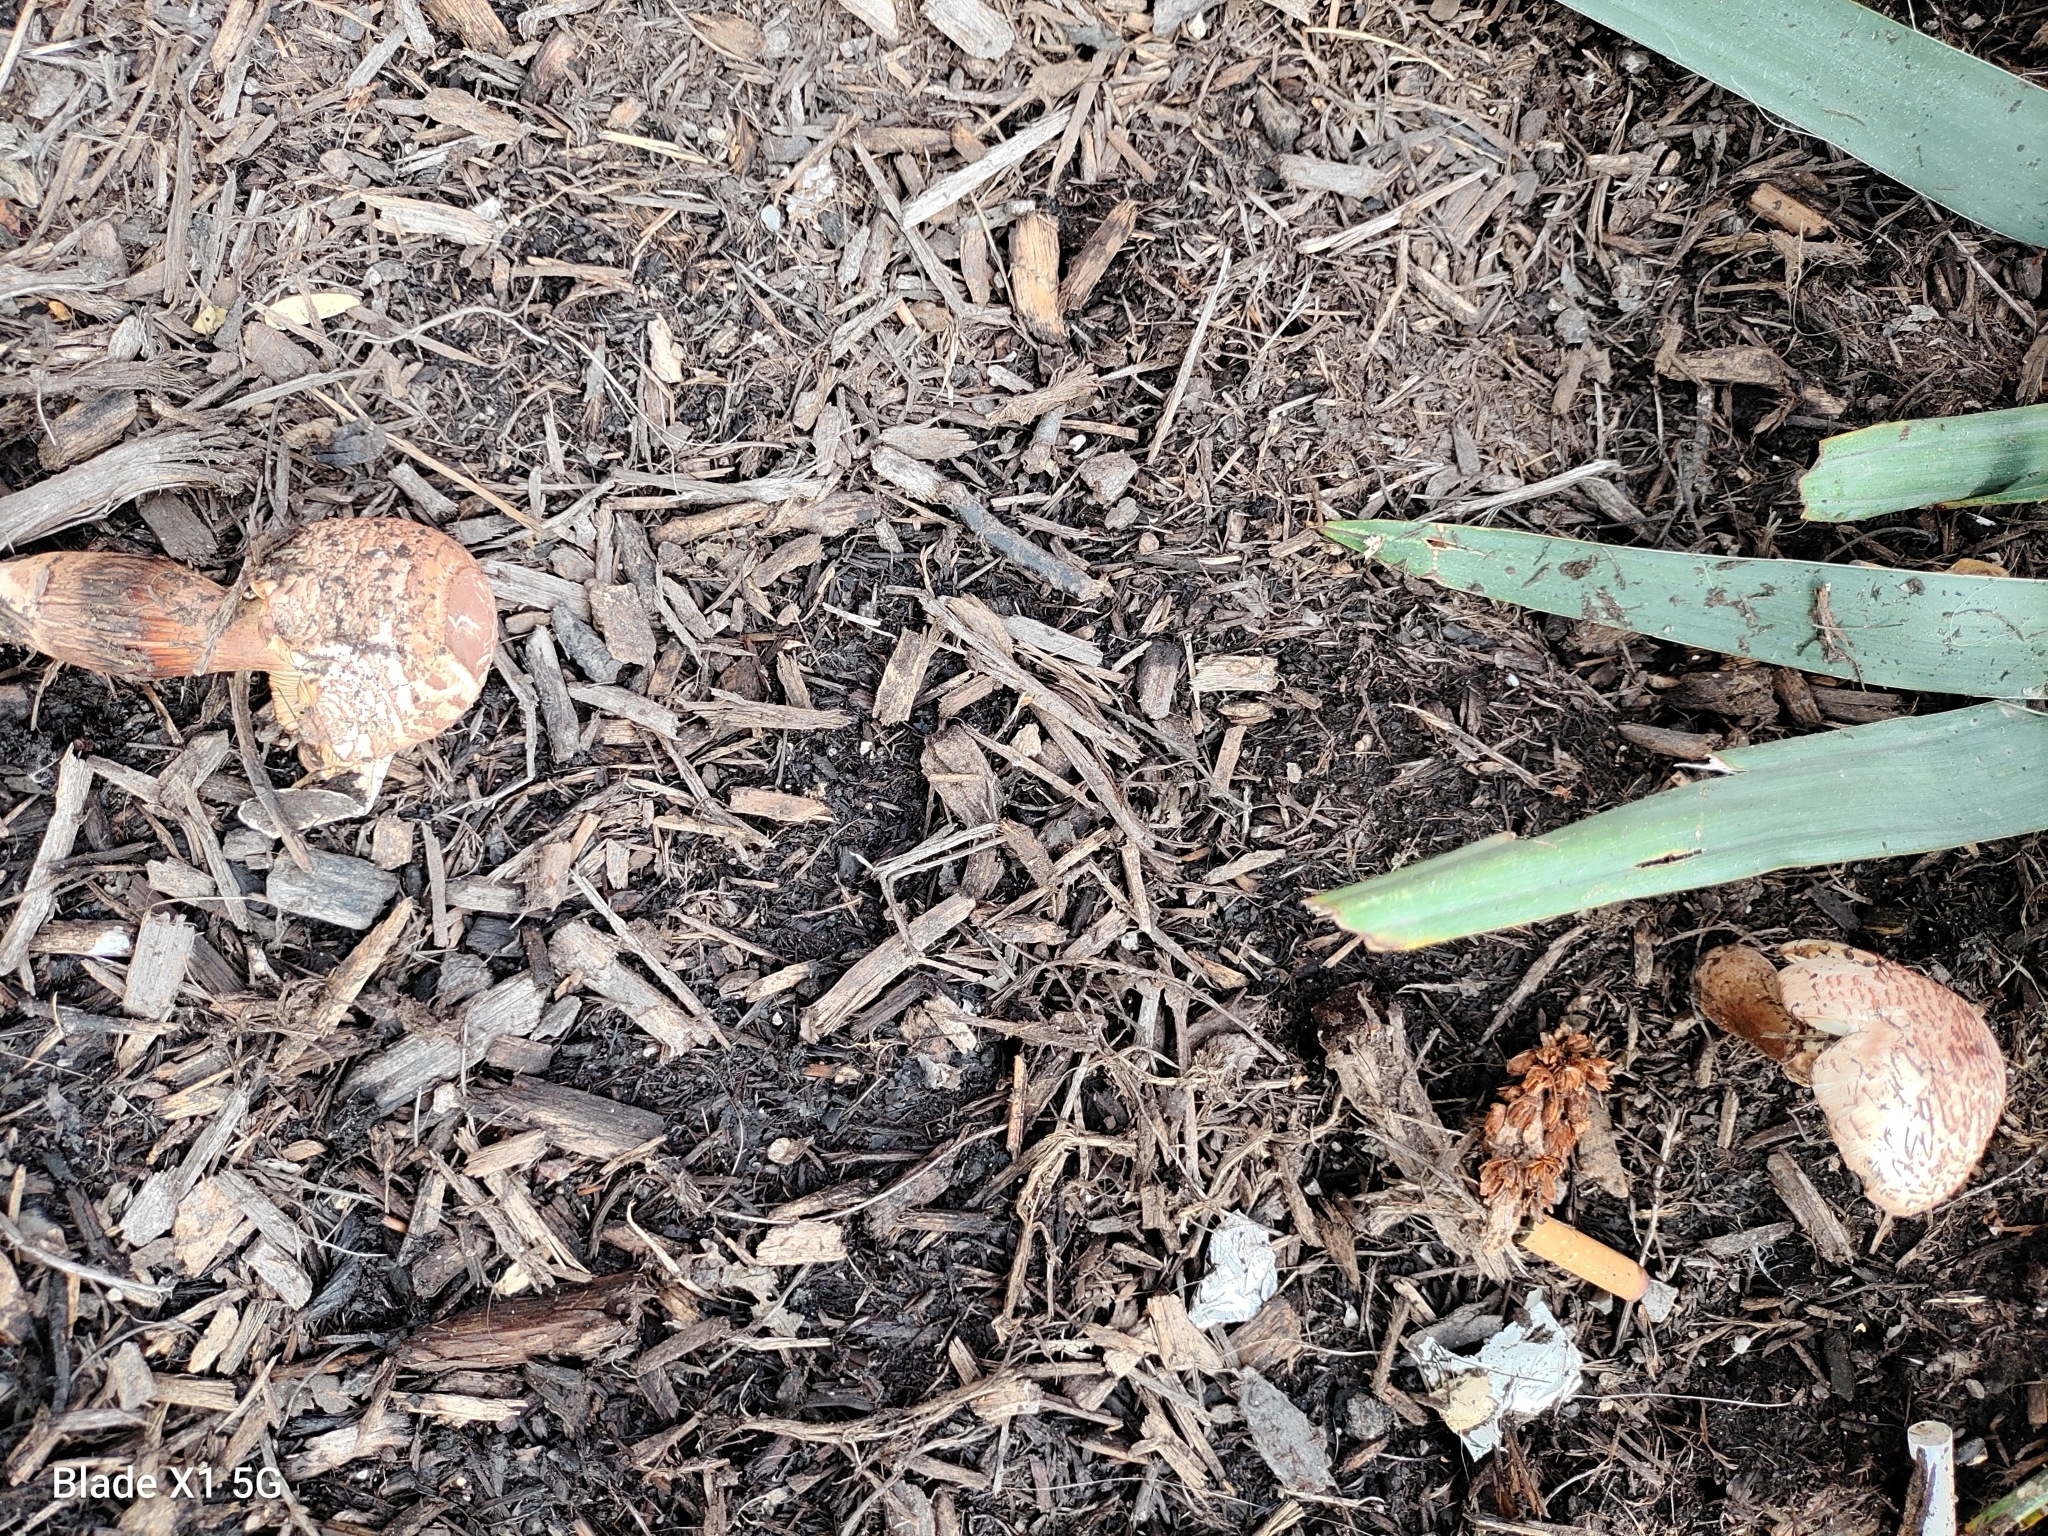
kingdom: Fungi
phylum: Basidiomycota
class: Agaricomycetes
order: Agaricales
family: Agaricaceae
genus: Leucoagaricus
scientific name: Leucoagaricus americanus
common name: Reddening lepiota
